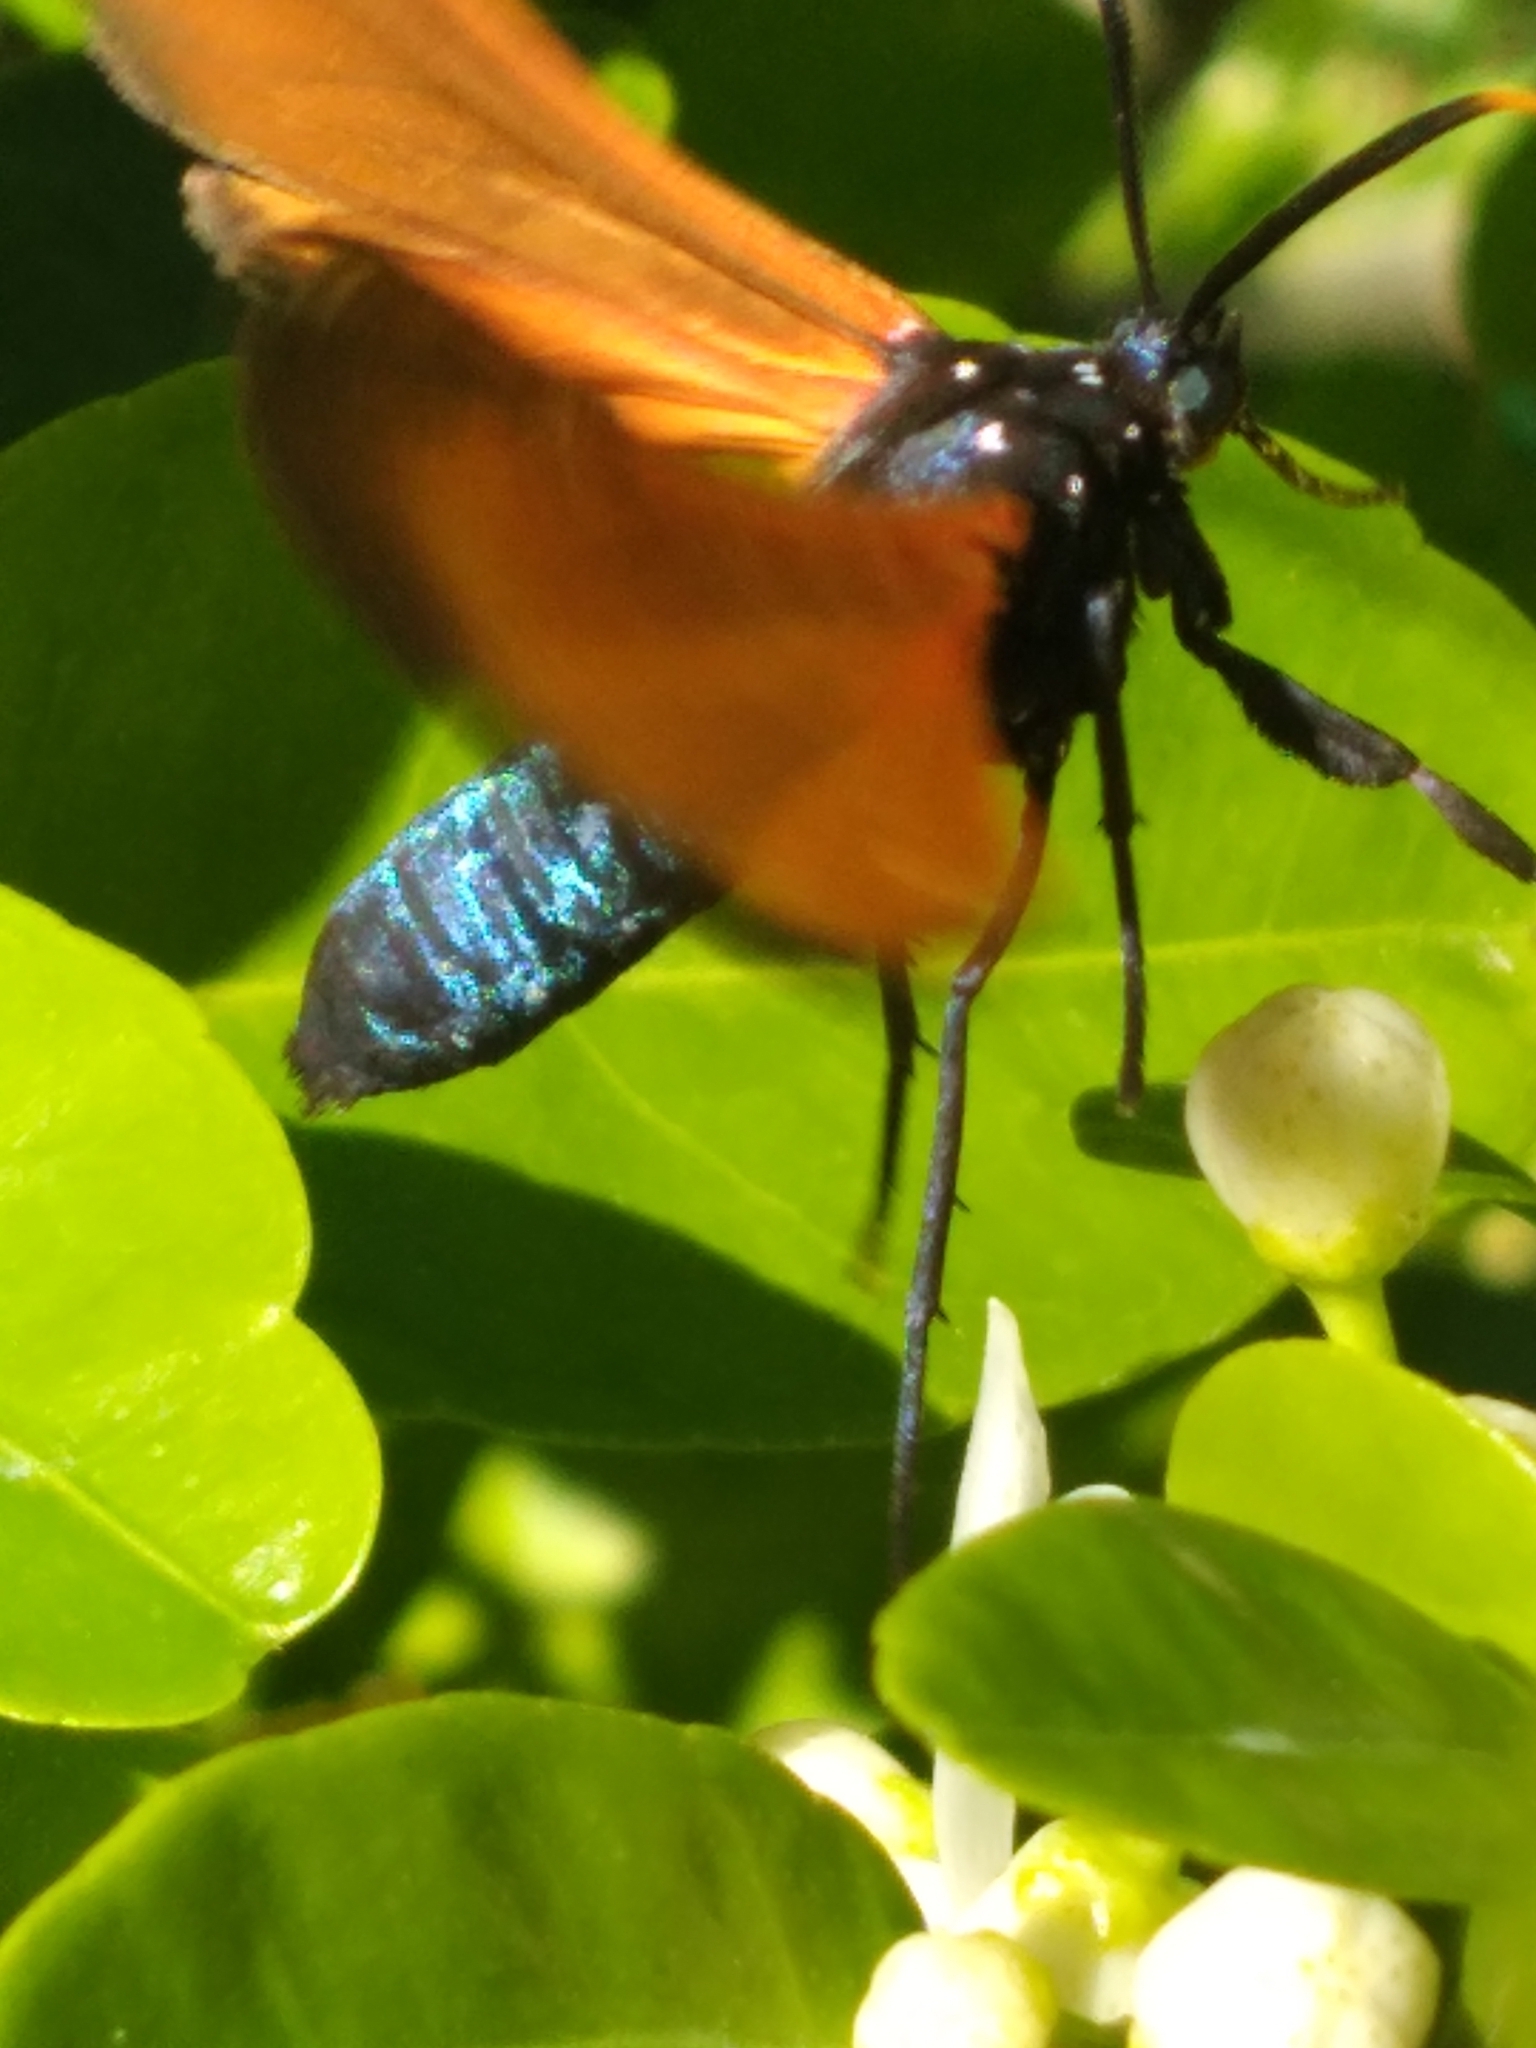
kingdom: Animalia
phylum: Arthropoda
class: Insecta
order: Lepidoptera
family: Erebidae
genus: Empyreuma
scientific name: Empyreuma pugione
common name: Spotted oleander caterpillar moth
